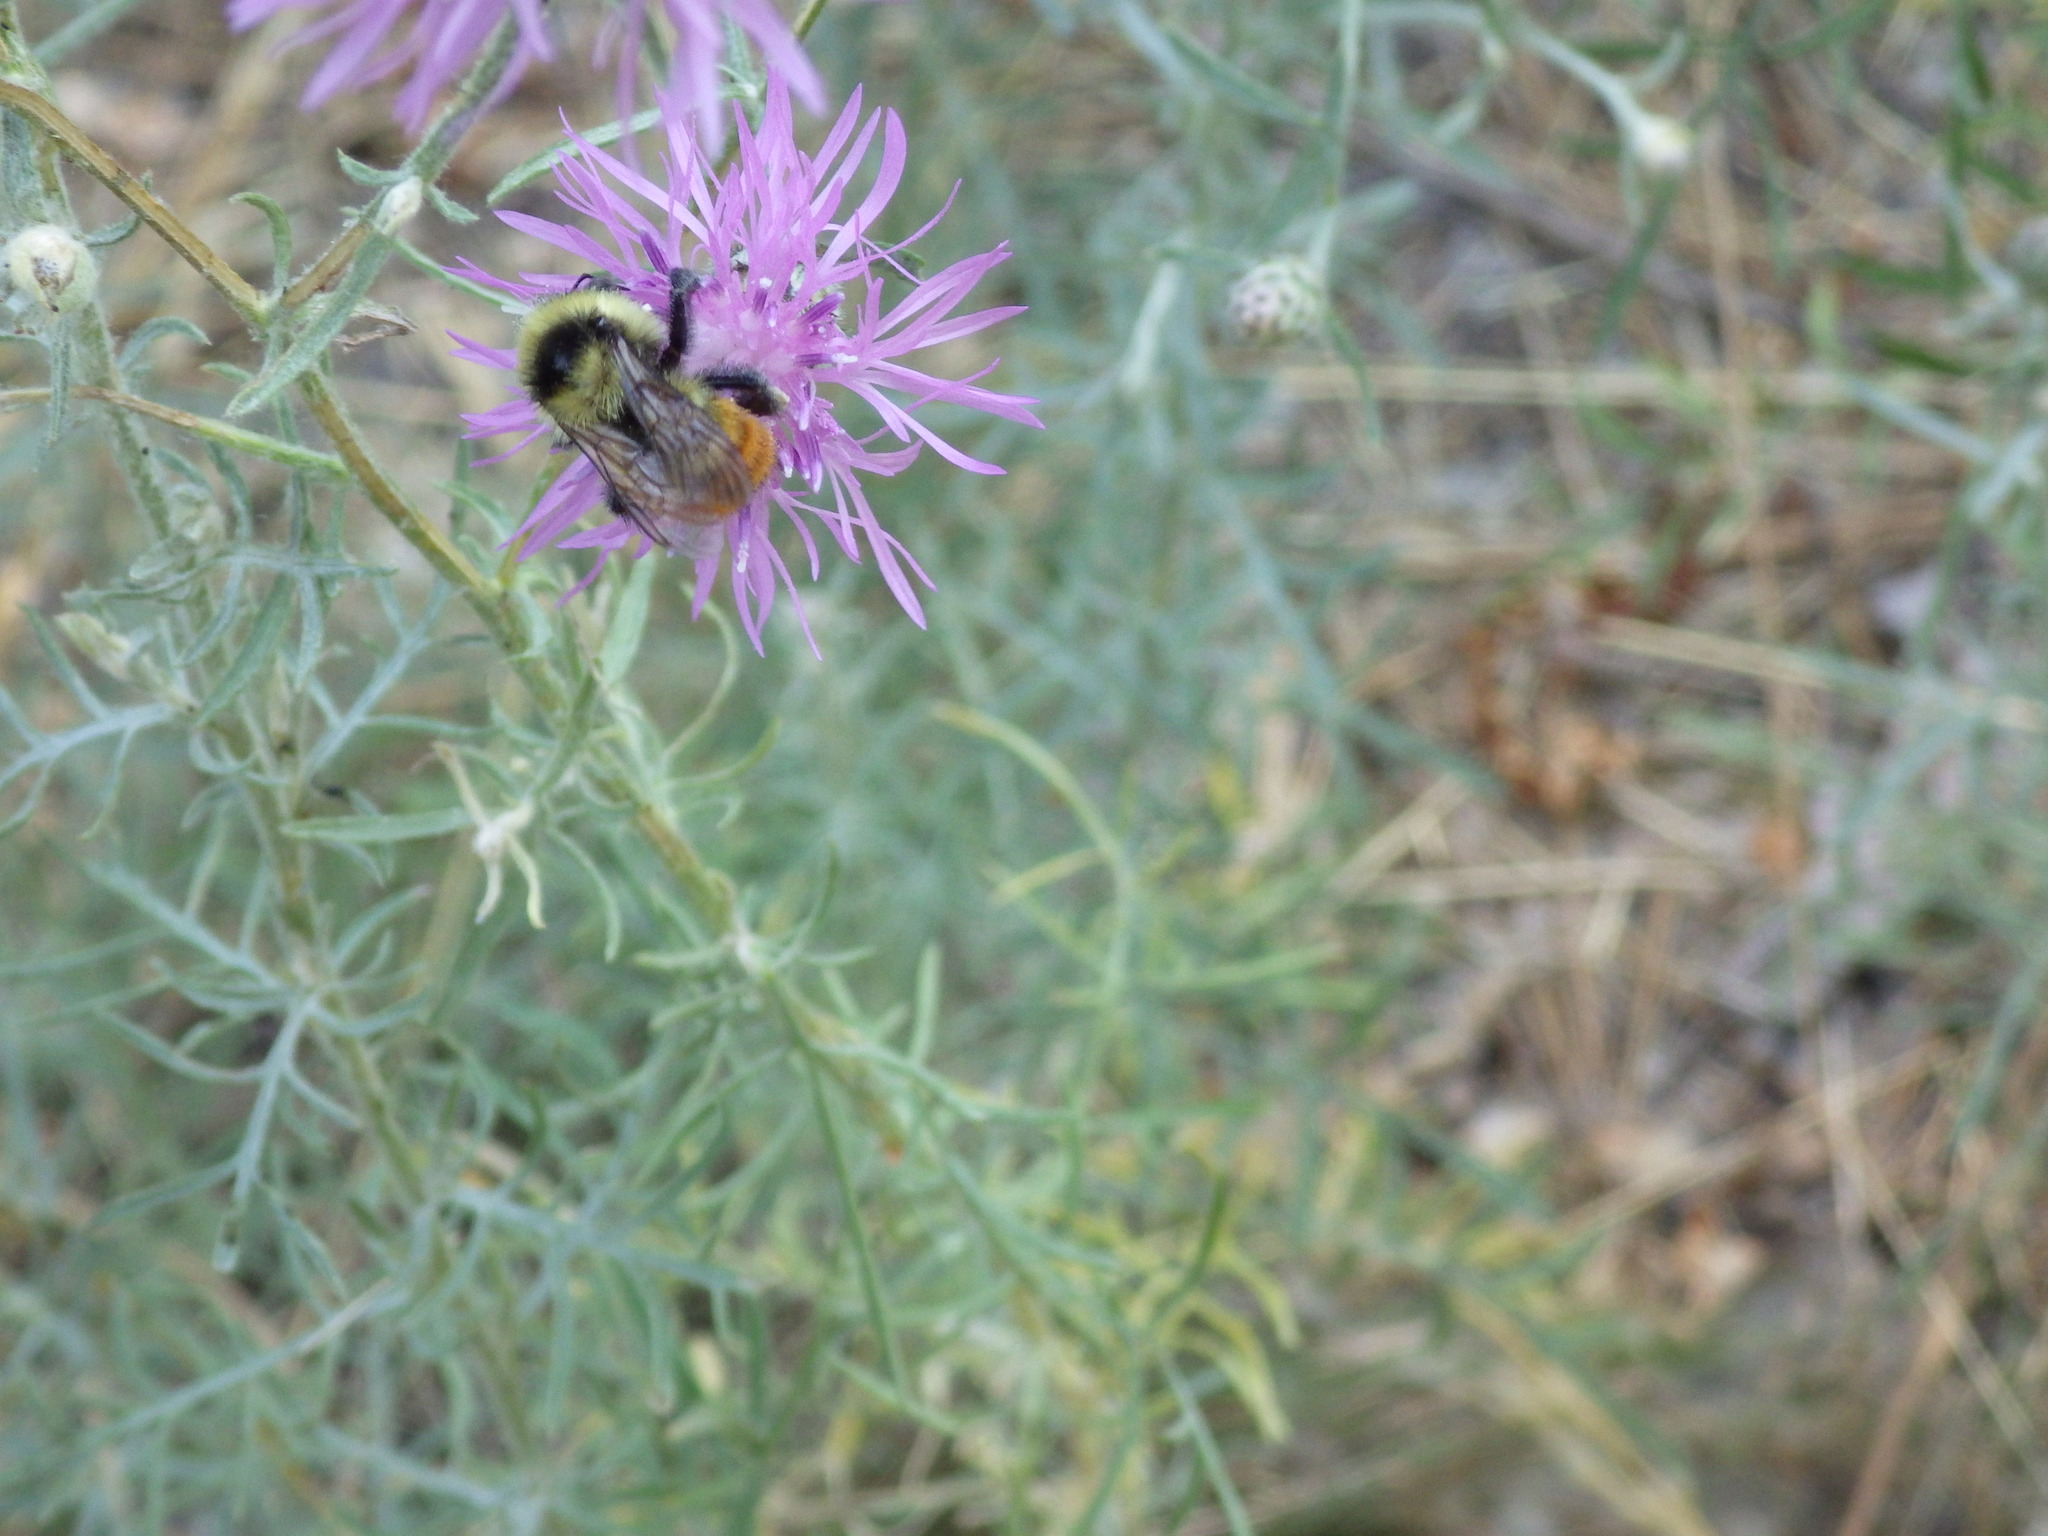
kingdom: Animalia
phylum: Arthropoda
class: Insecta
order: Hymenoptera
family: Apidae
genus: Bombus
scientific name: Bombus rufocinctus
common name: Red-belted bumble bee
